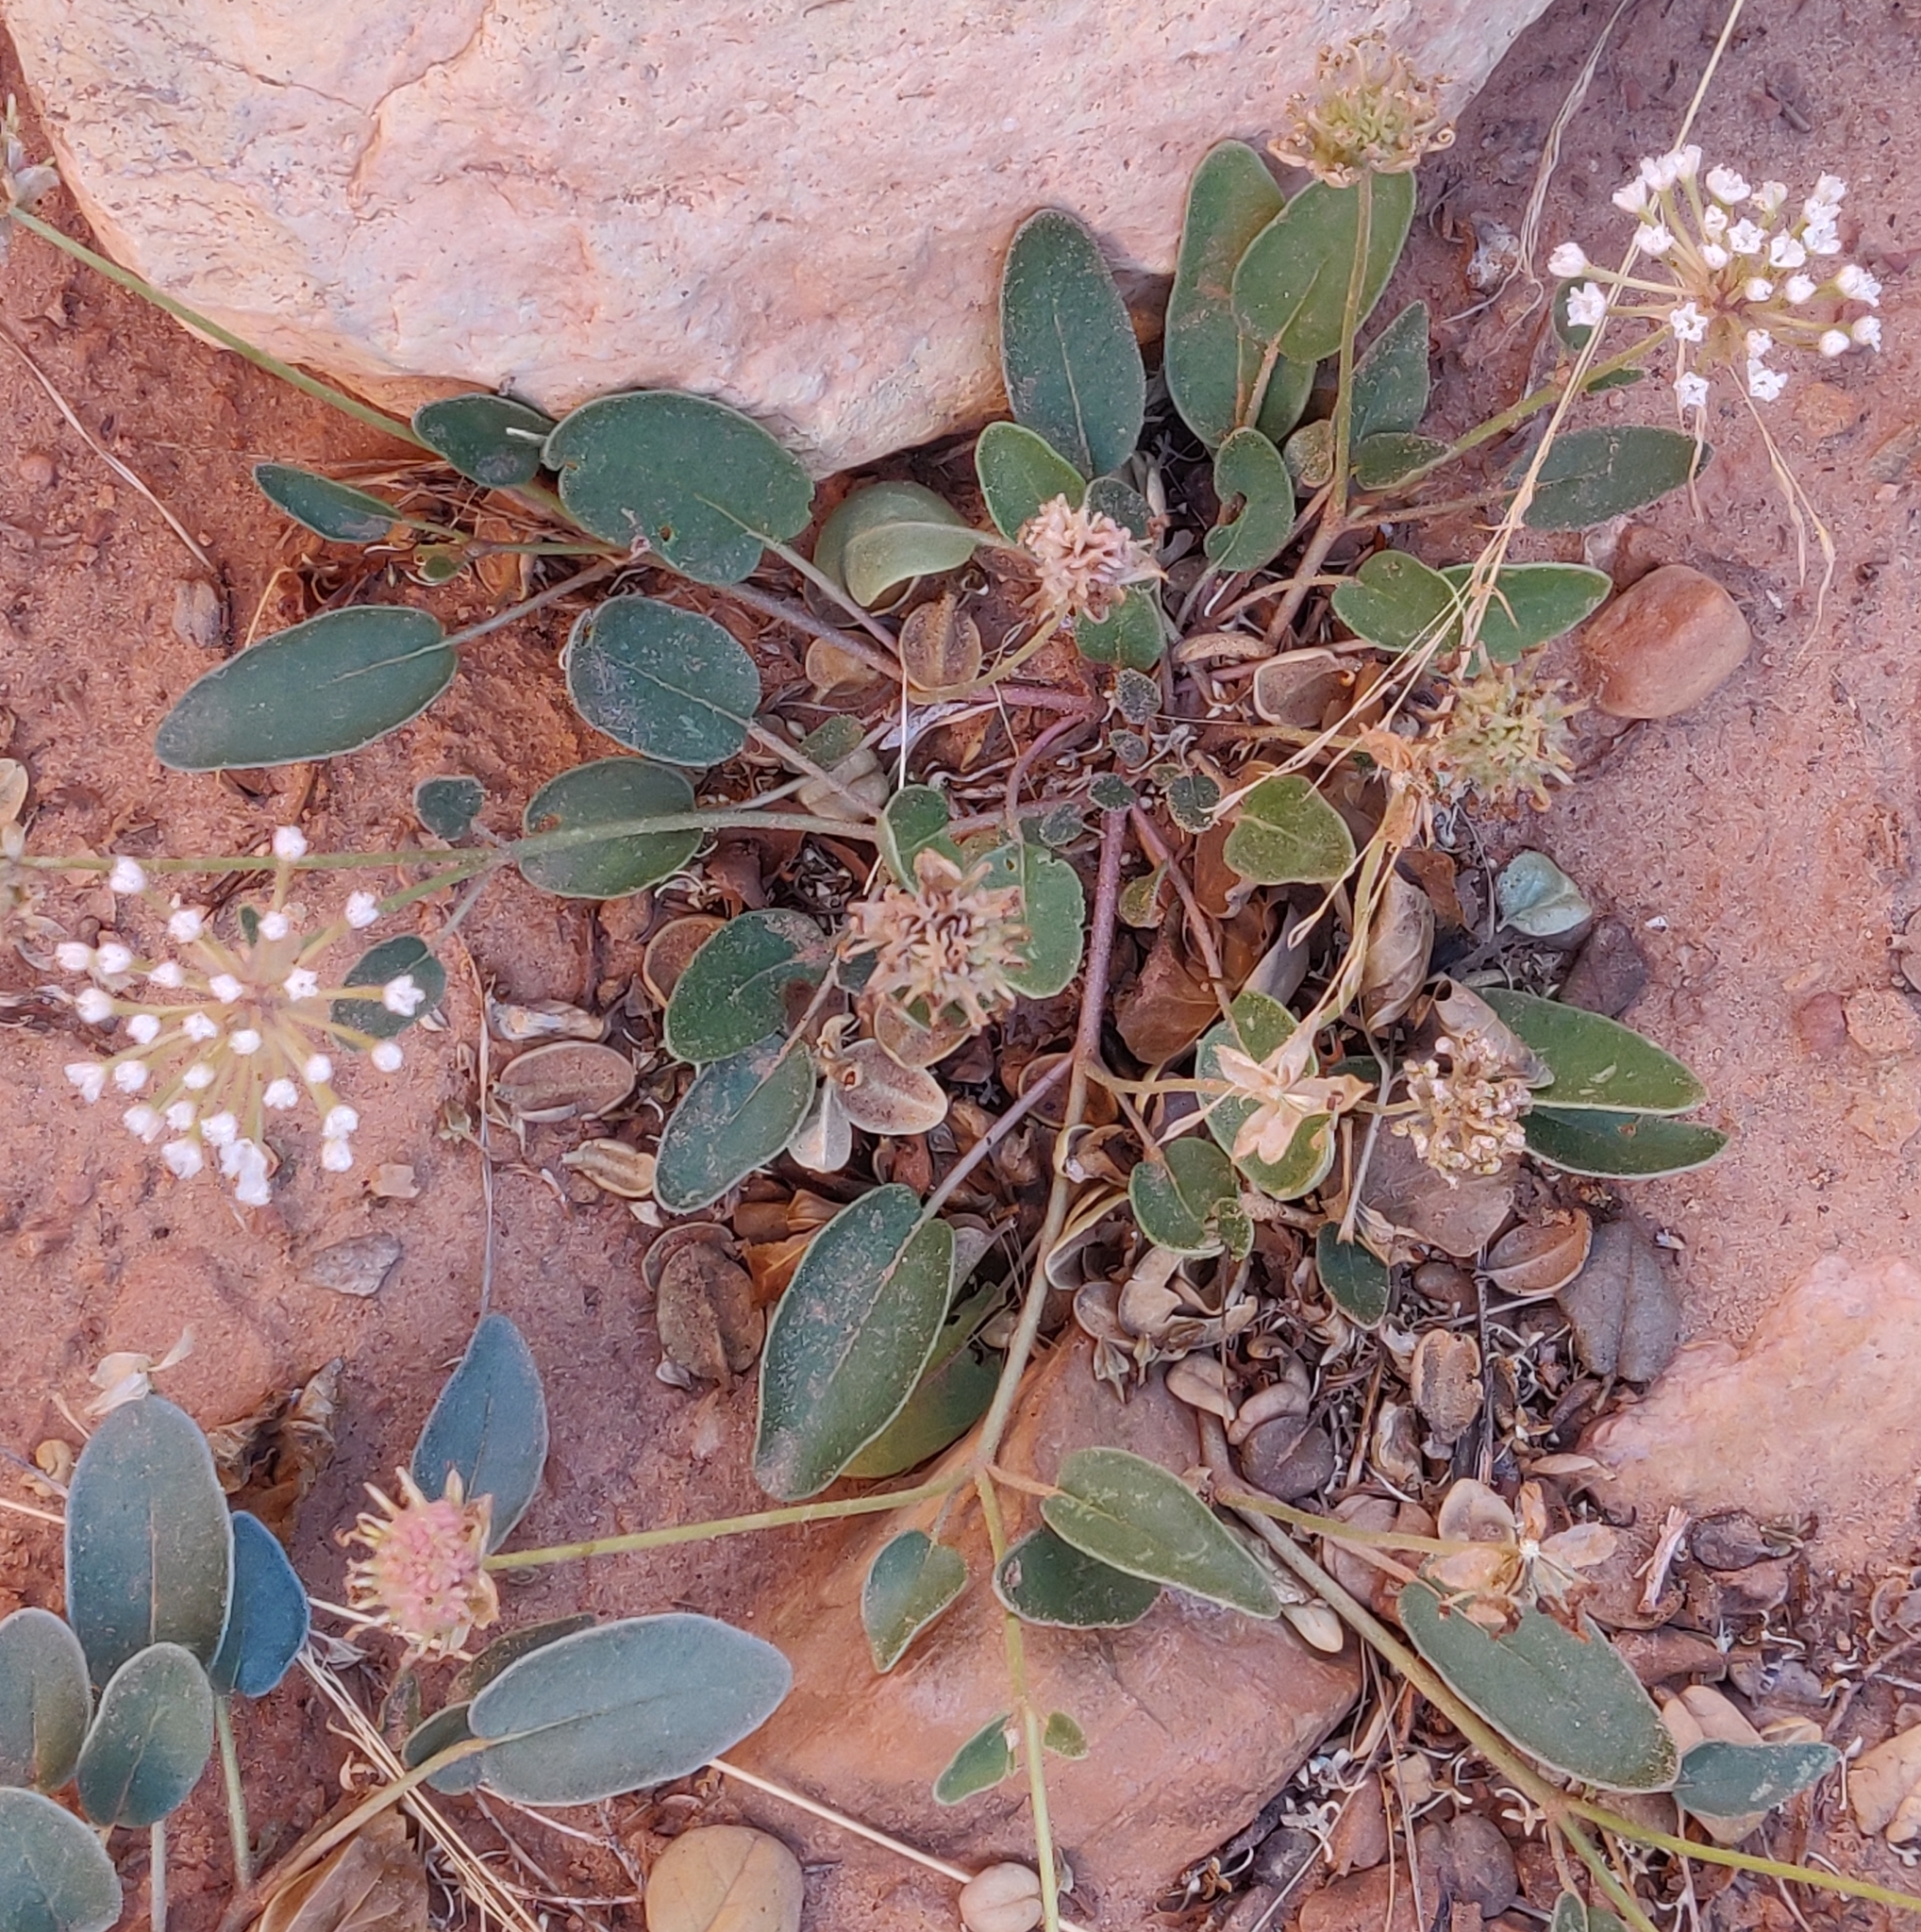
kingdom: Plantae
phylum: Tracheophyta
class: Magnoliopsida
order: Caryophyllales
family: Nyctaginaceae
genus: Abronia
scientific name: Abronia elliptica
